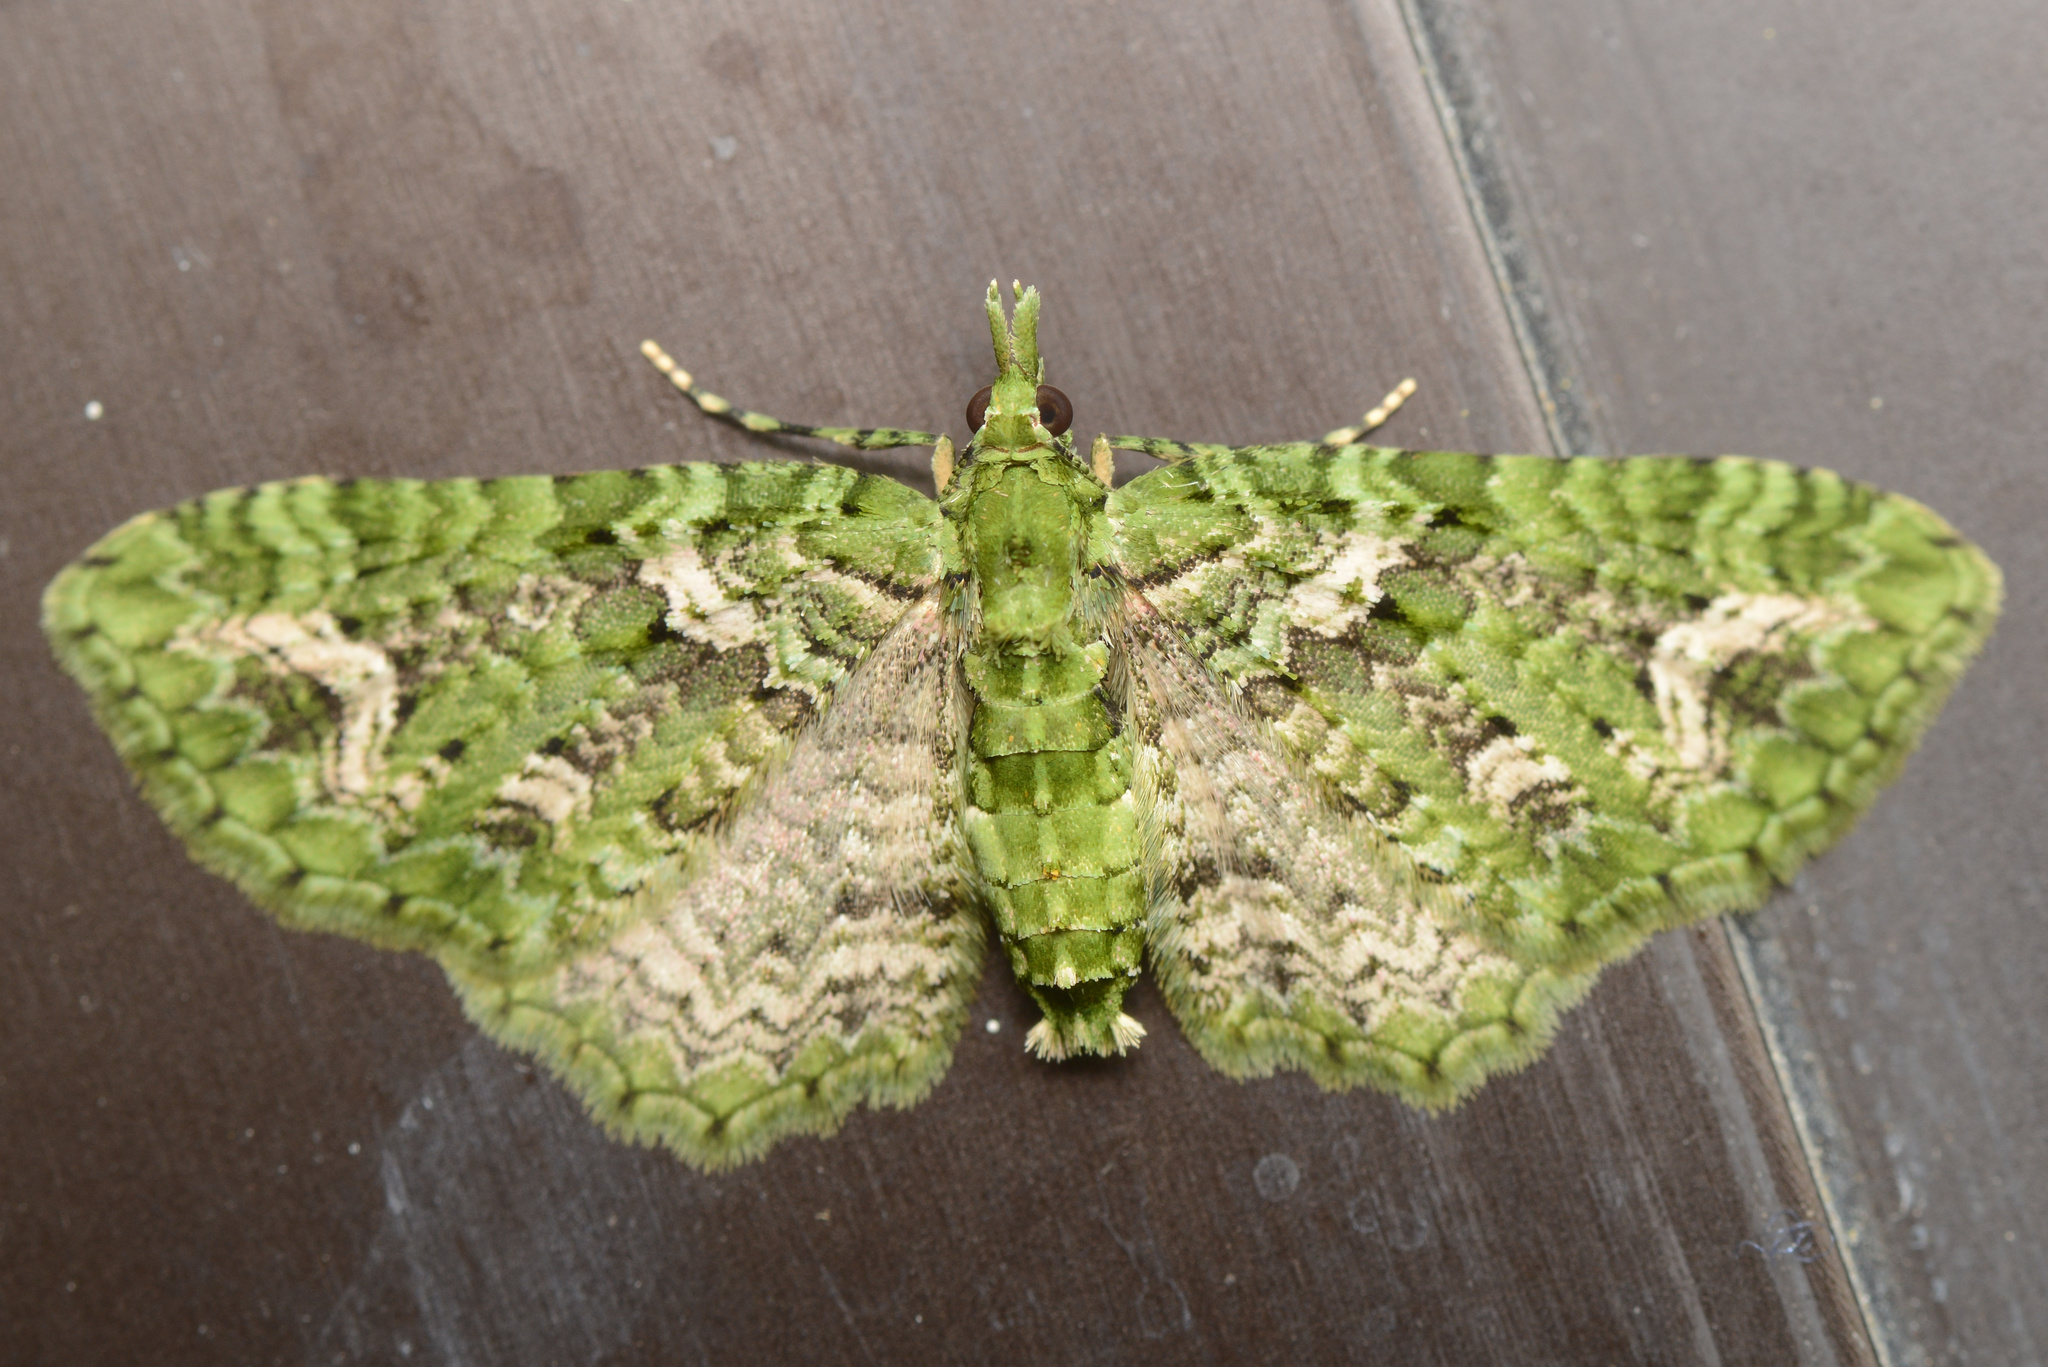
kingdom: Animalia
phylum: Arthropoda
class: Insecta
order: Lepidoptera
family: Geometridae
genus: Pasiphila
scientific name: Pasiphila muscosata
